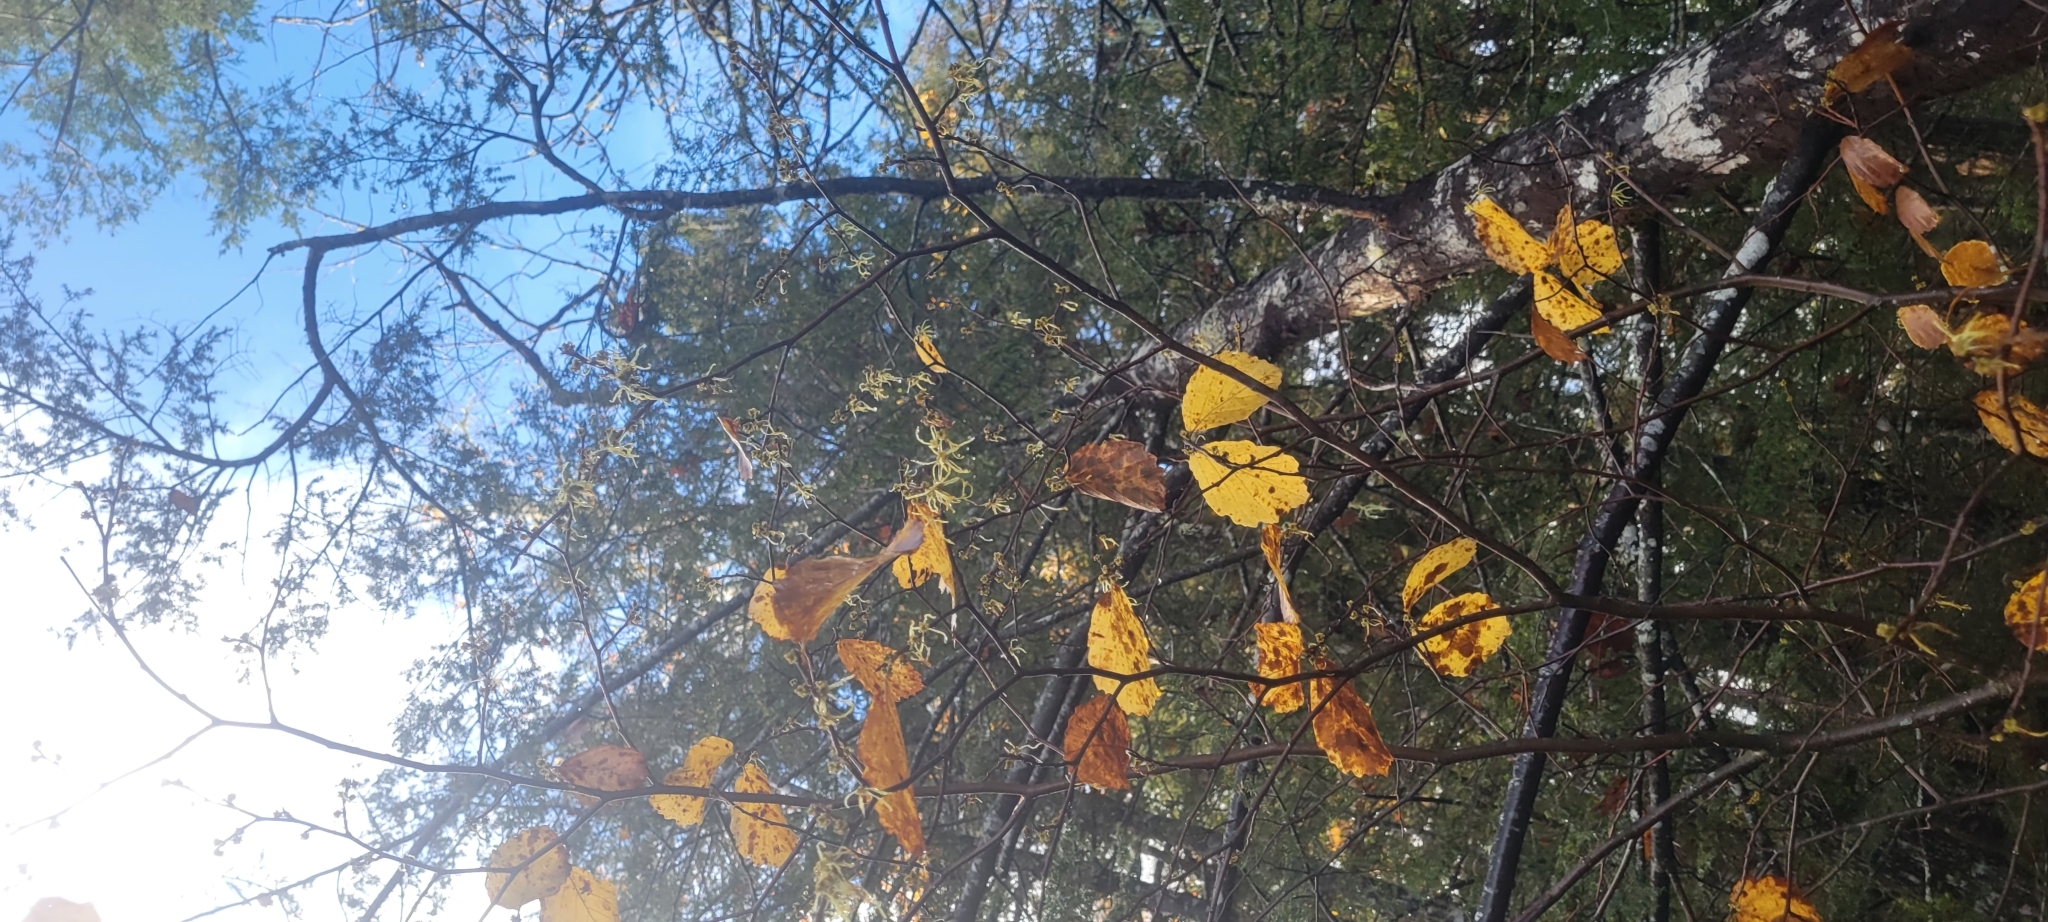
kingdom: Plantae
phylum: Tracheophyta
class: Magnoliopsida
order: Saxifragales
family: Hamamelidaceae
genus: Hamamelis
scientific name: Hamamelis virginiana
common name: Witch-hazel
